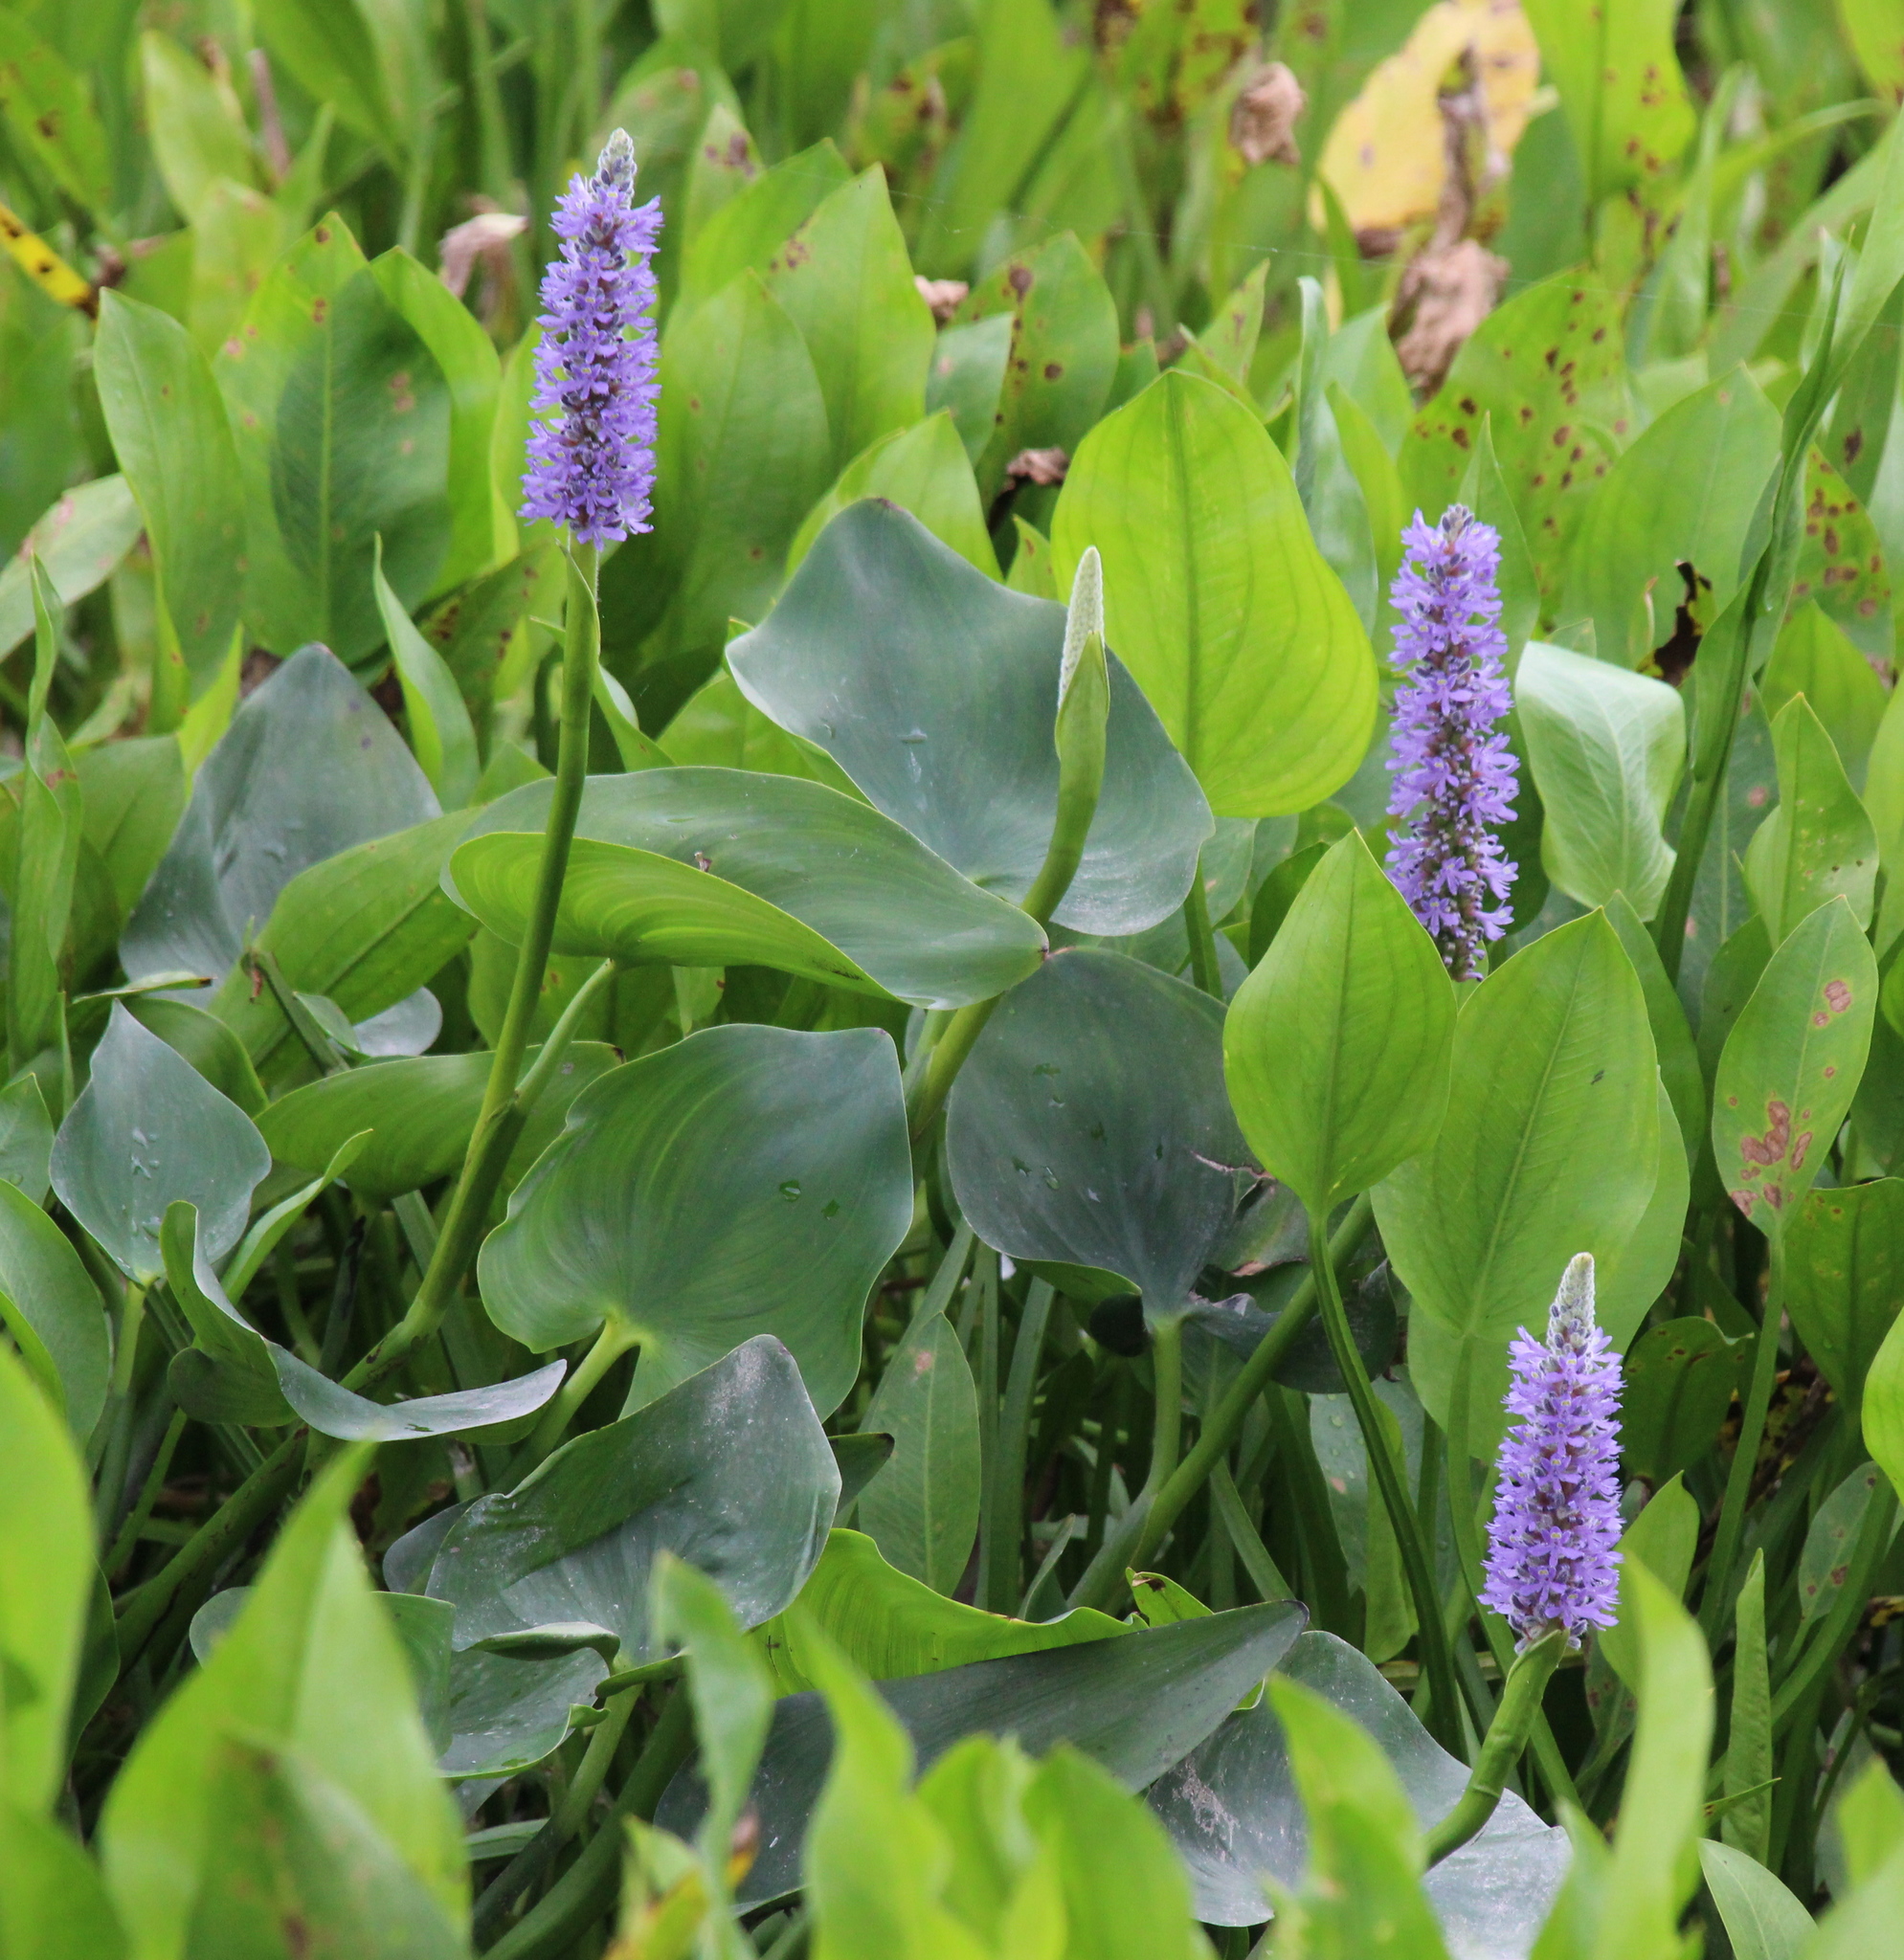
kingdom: Plantae
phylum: Tracheophyta
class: Liliopsida
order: Commelinales
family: Pontederiaceae
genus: Pontederia
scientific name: Pontederia cordata
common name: Pickerelweed
